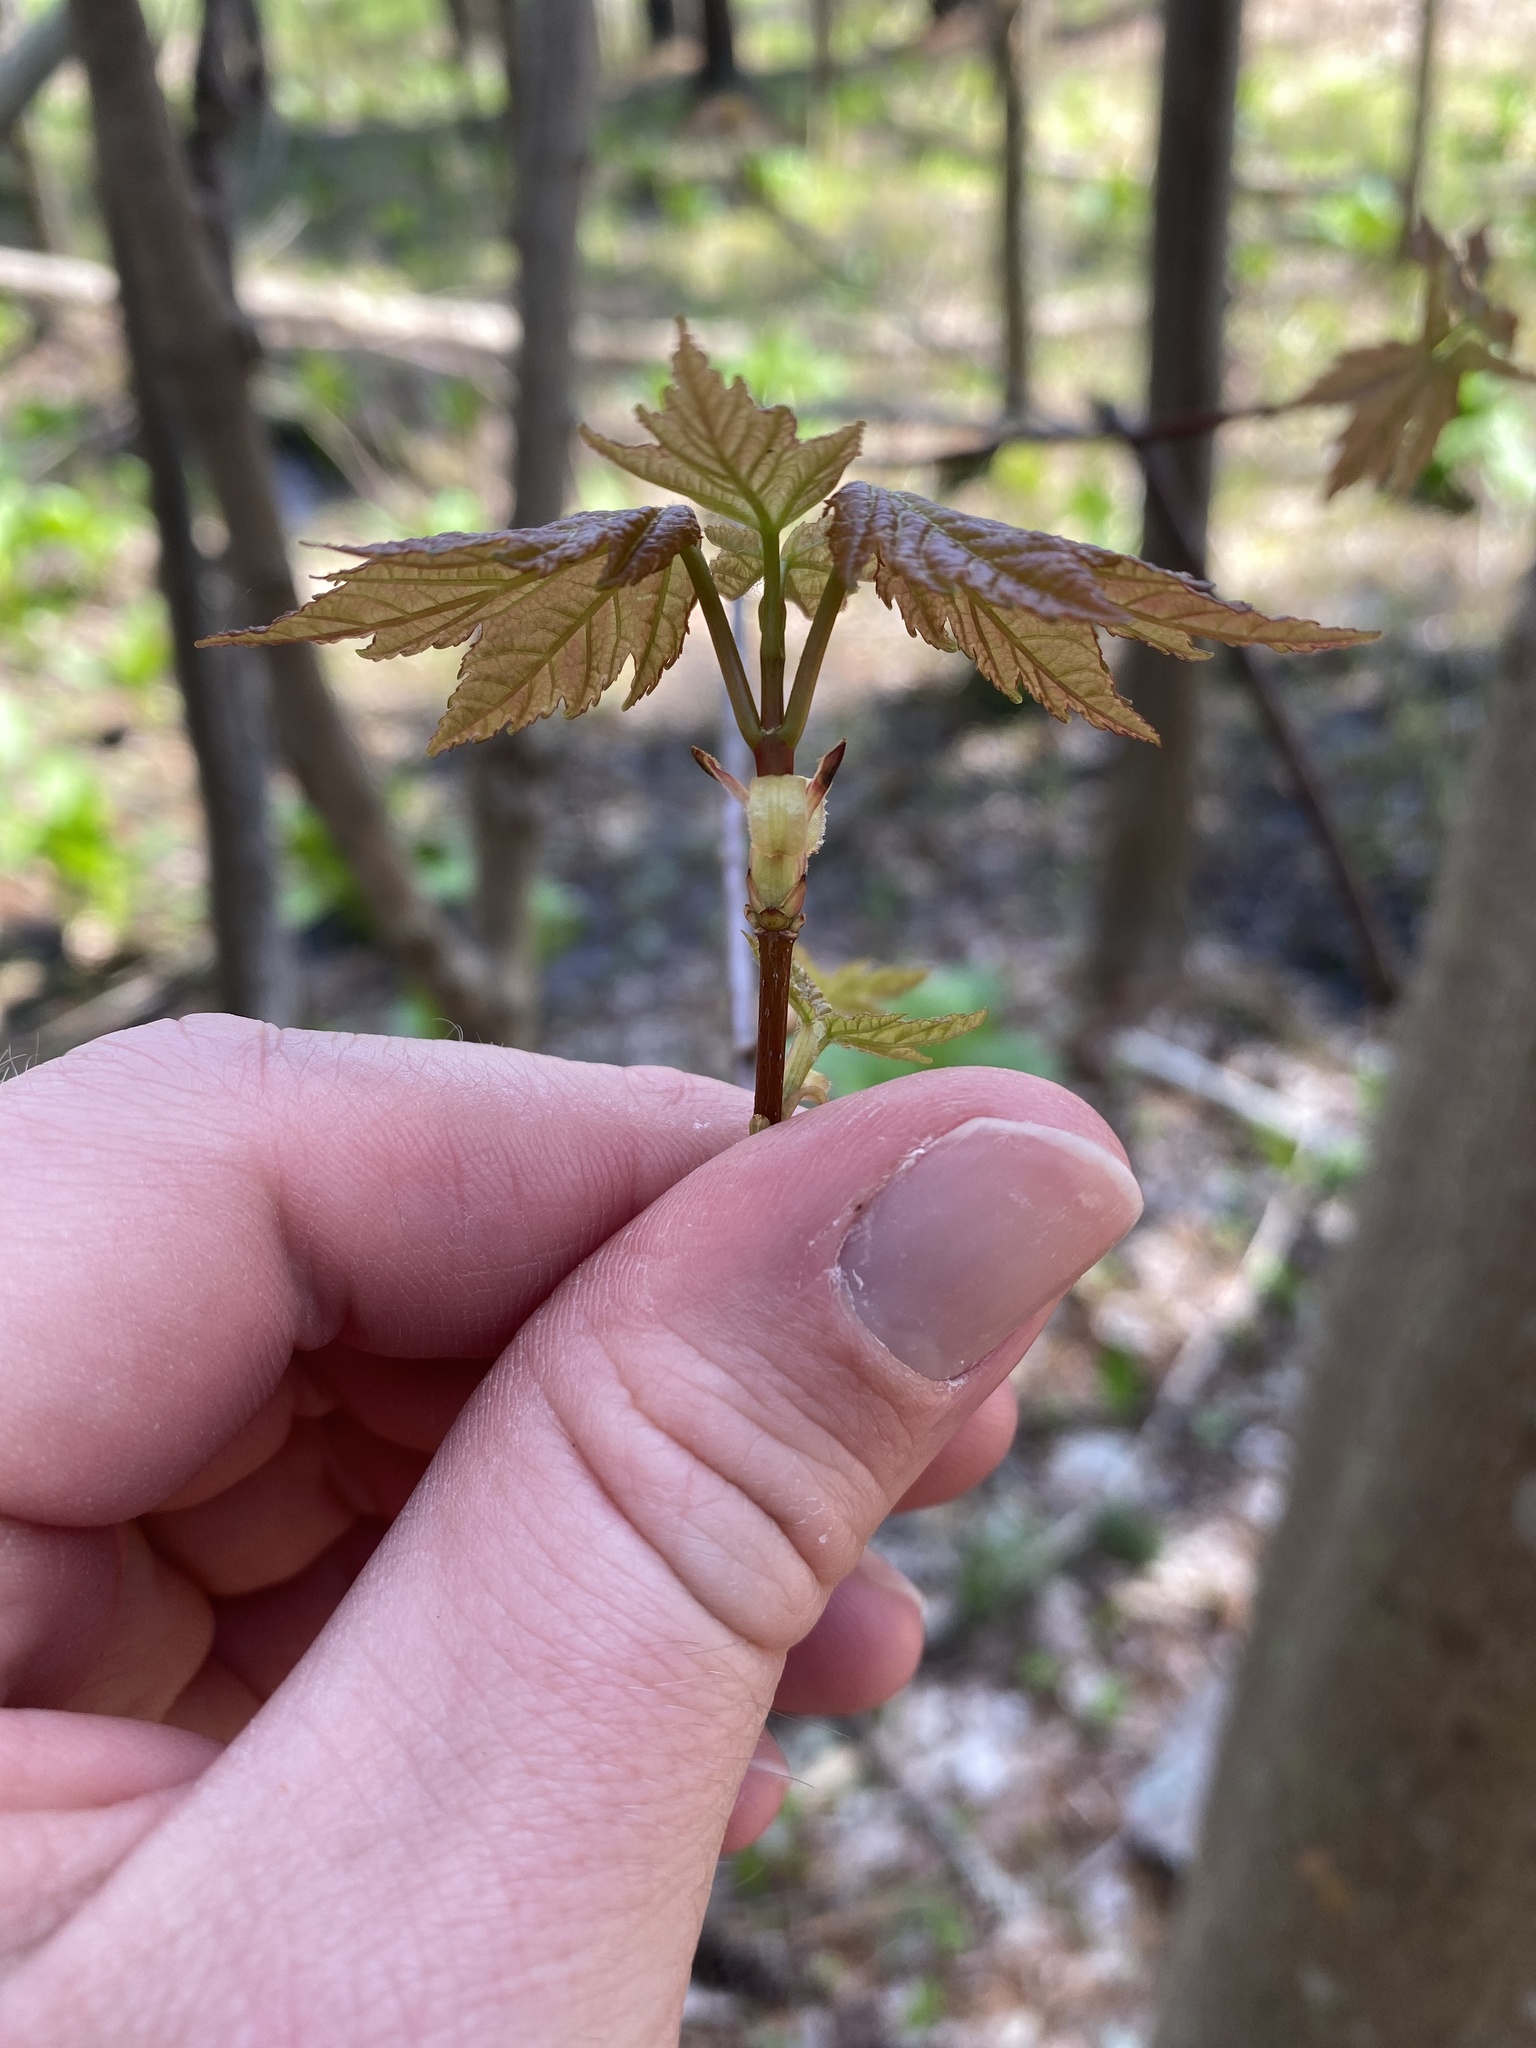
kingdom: Plantae
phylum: Tracheophyta
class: Magnoliopsida
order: Sapindales
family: Sapindaceae
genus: Acer
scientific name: Acer rubrum
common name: Red maple
